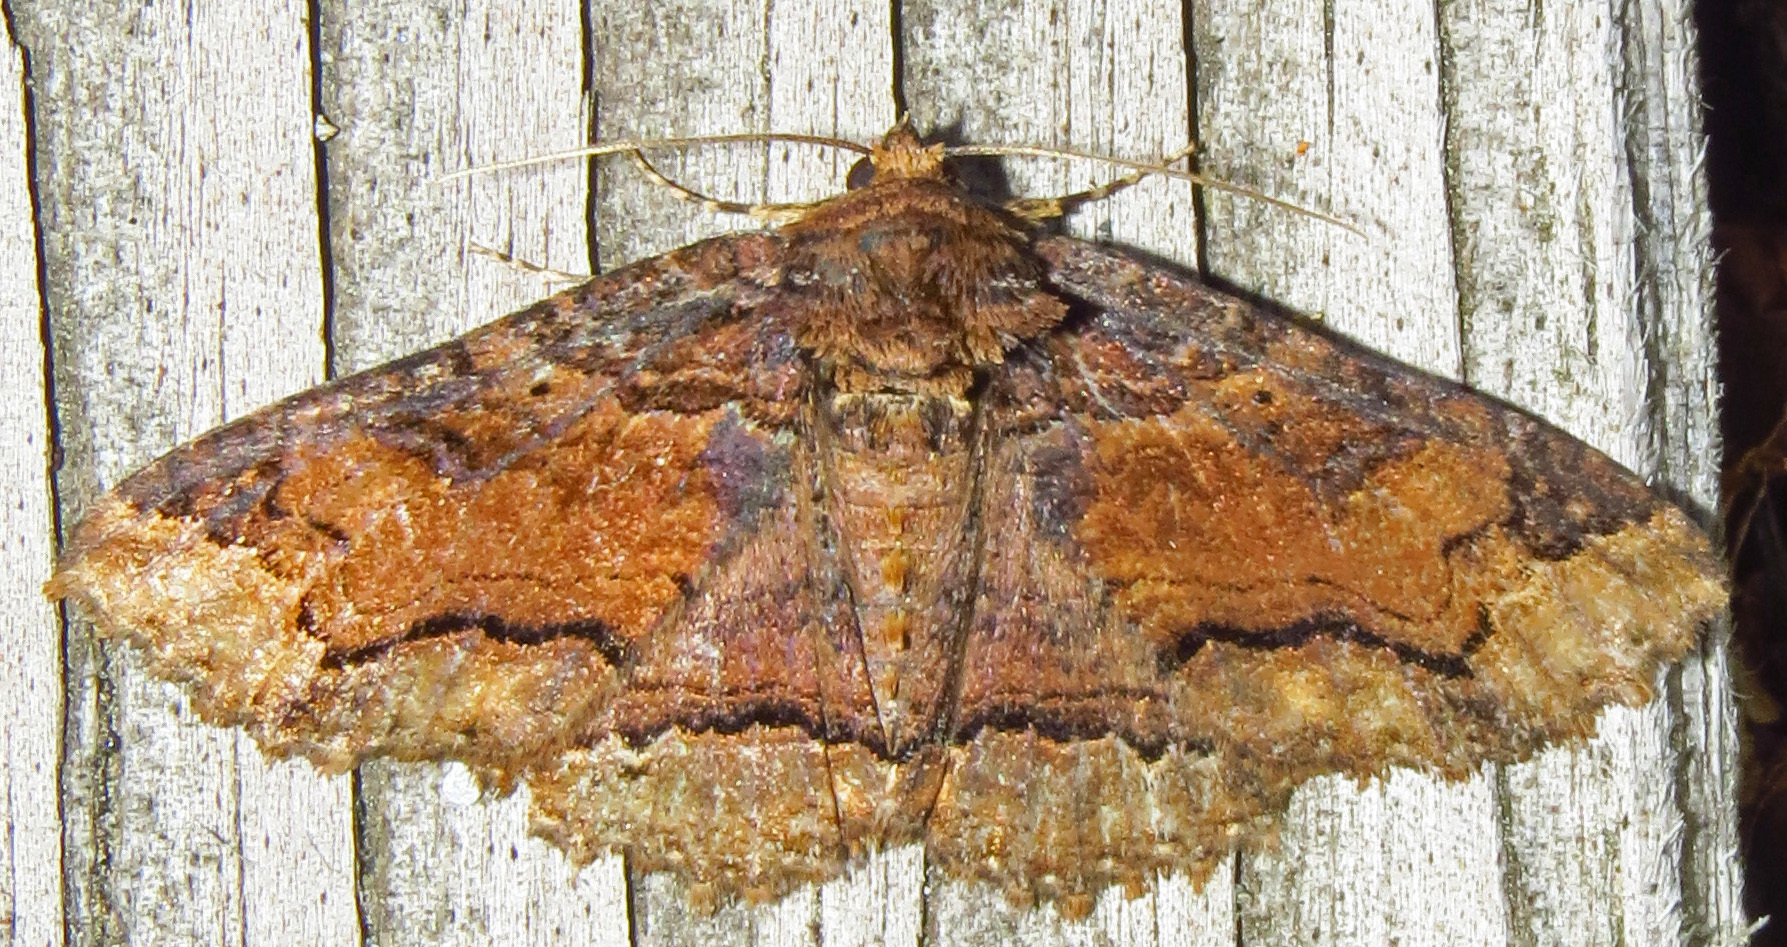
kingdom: Animalia
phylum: Arthropoda
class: Insecta
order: Lepidoptera
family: Erebidae
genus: Zale
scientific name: Zale minerea
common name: Colorful zale moth
